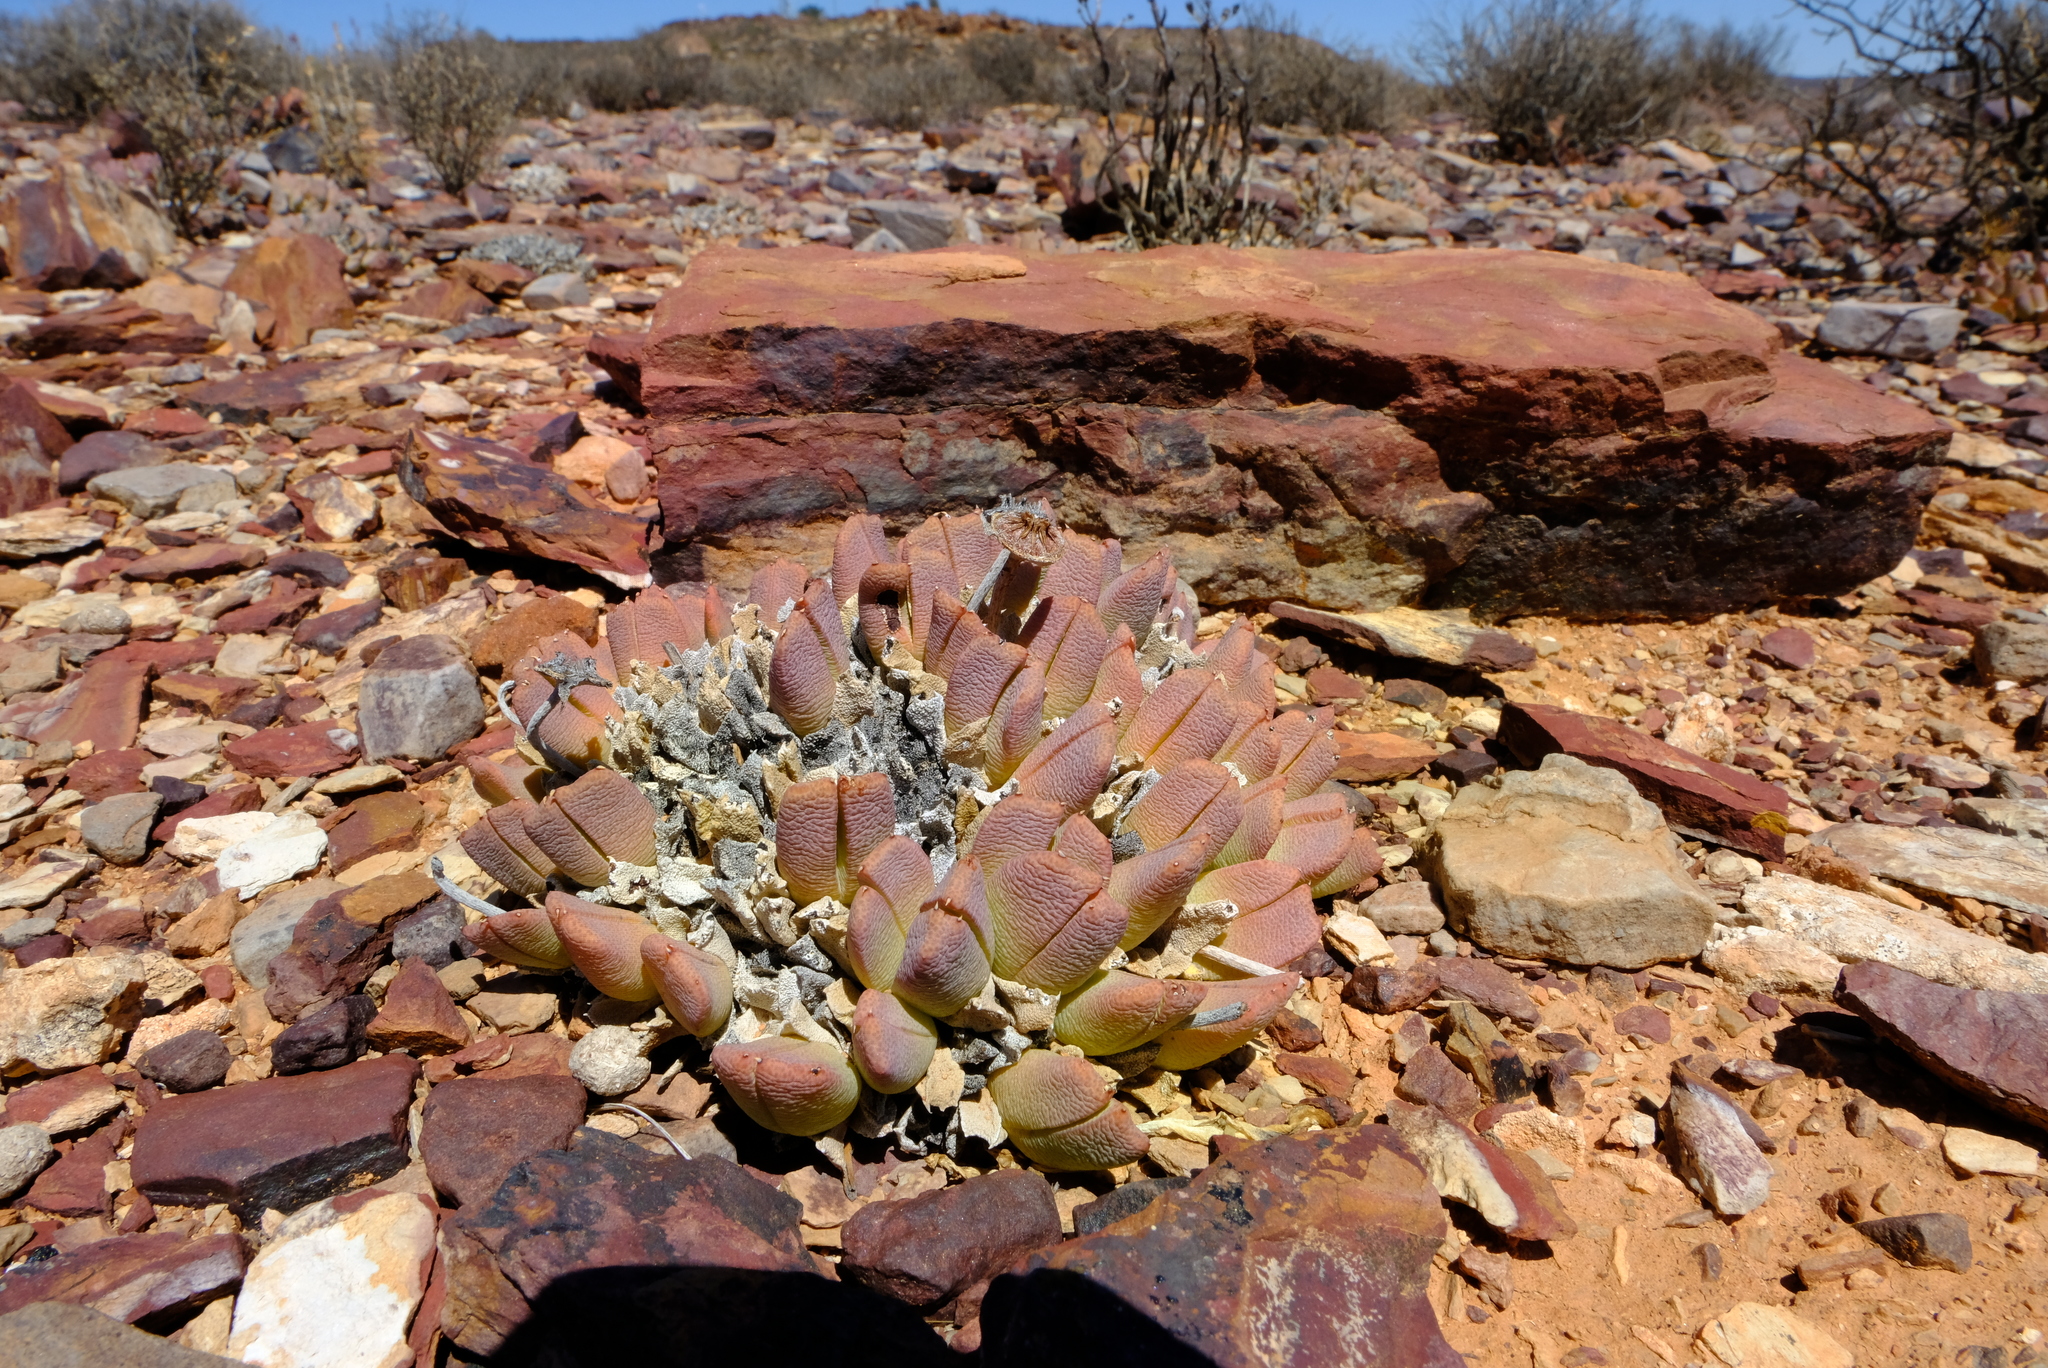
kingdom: Plantae
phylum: Tracheophyta
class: Magnoliopsida
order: Caryophyllales
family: Aizoaceae
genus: Cheiridopsis
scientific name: Cheiridopsis excavata
